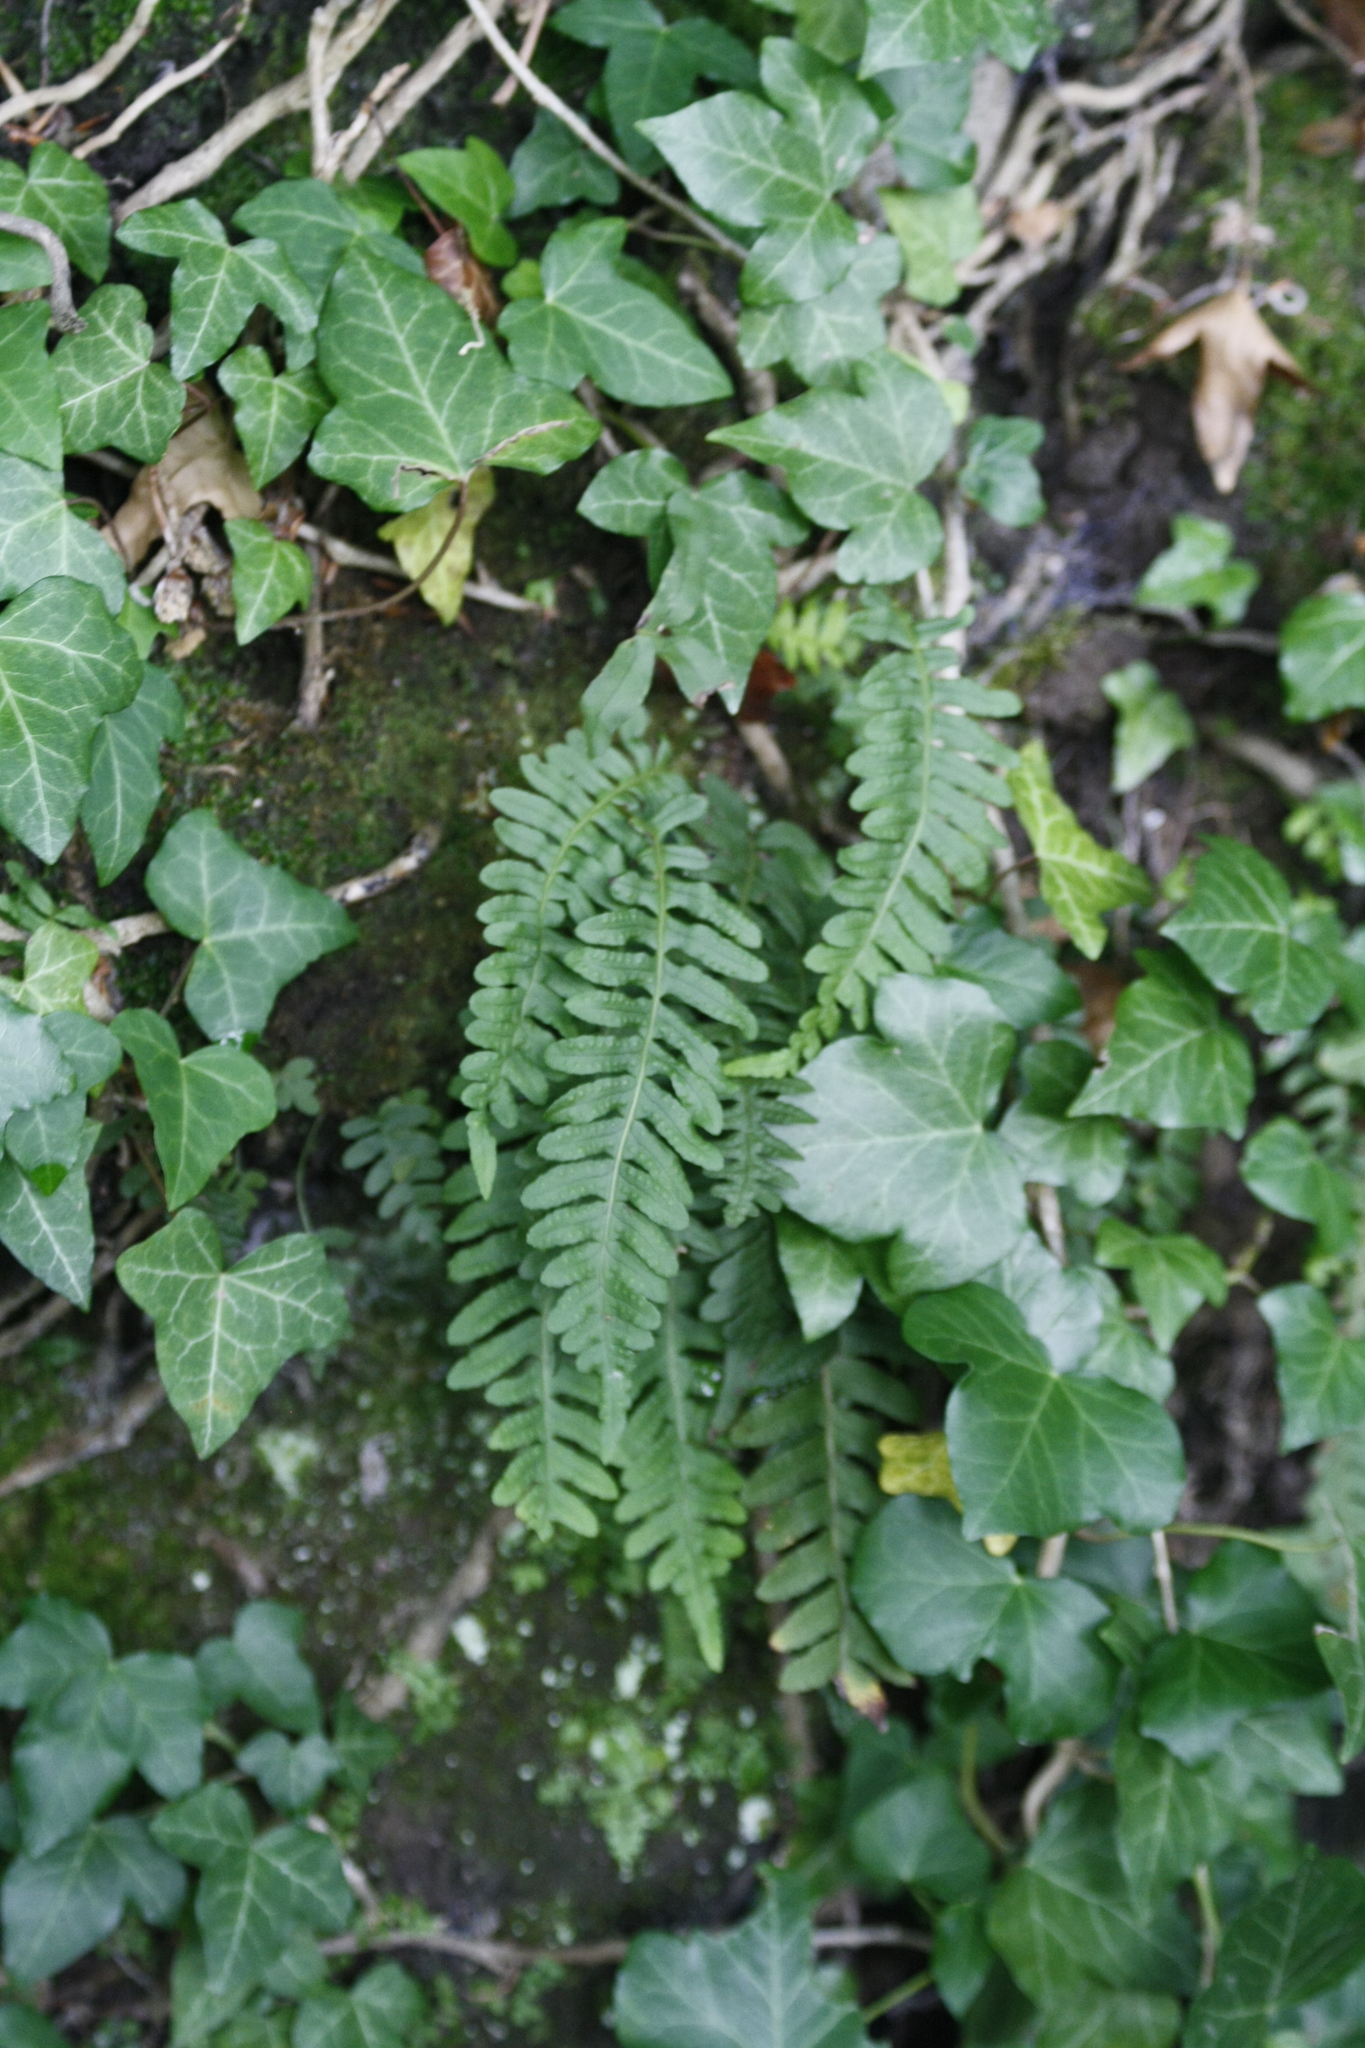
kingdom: Plantae
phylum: Tracheophyta
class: Polypodiopsida
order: Polypodiales
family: Polypodiaceae
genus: Polypodium
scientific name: Polypodium vulgare
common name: Common polypody
